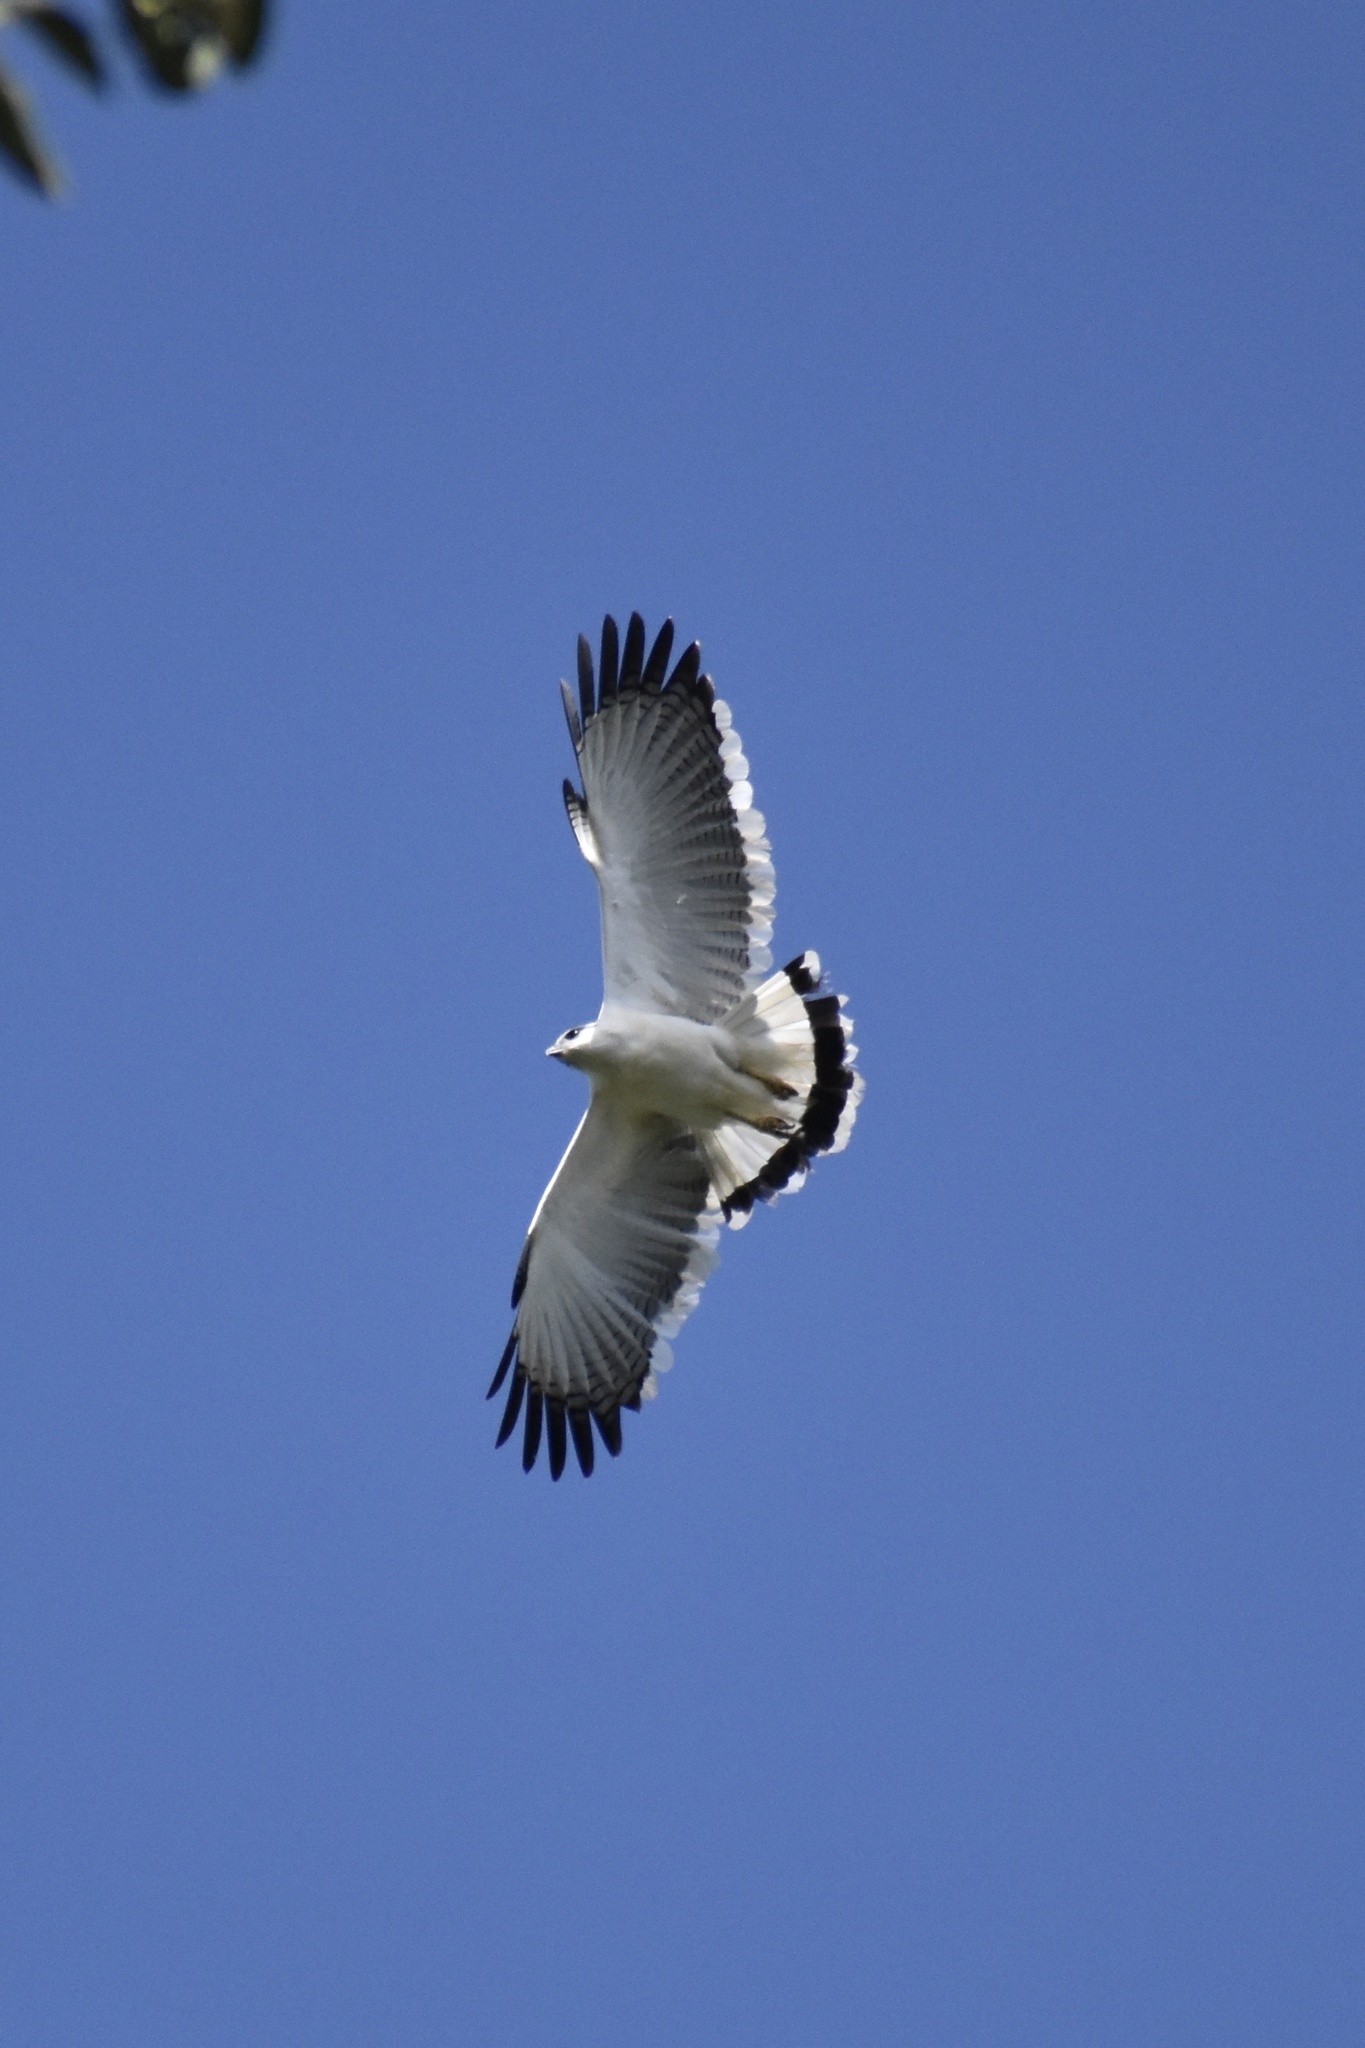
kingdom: Animalia
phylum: Chordata
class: Aves
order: Accipitriformes
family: Accipitridae
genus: Leucopternis
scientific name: Leucopternis albicollis
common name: White hawk
